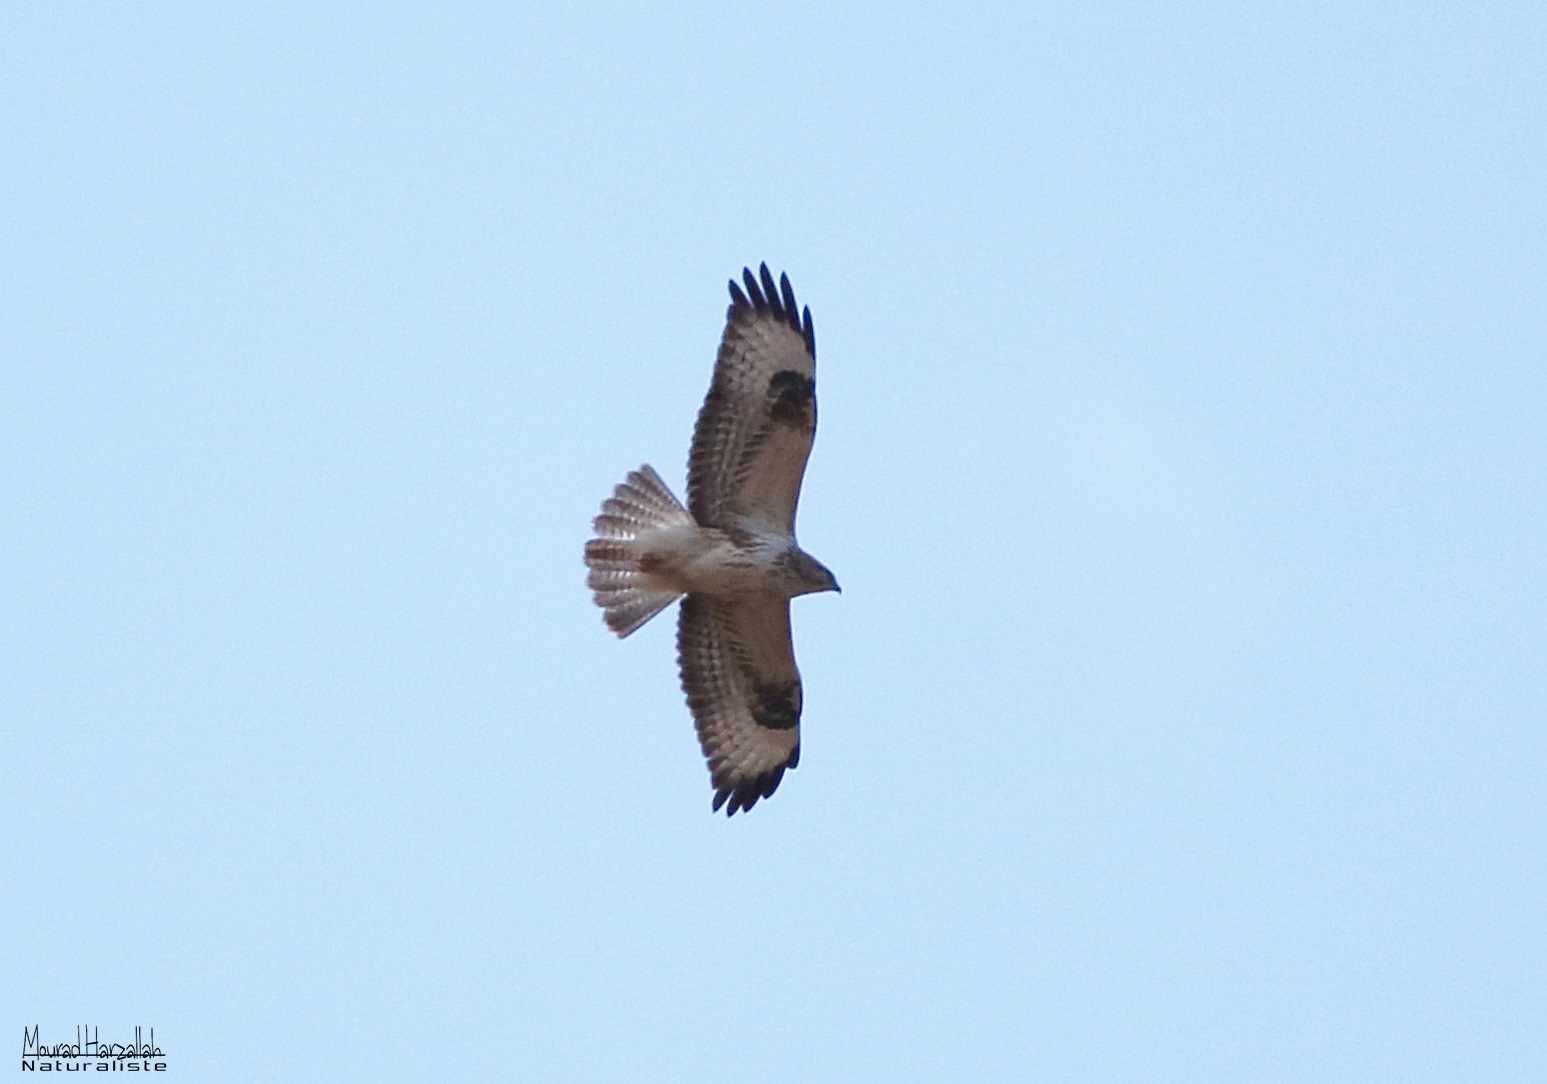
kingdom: Animalia
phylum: Chordata
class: Aves
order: Accipitriformes
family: Accipitridae
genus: Buteo
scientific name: Buteo rufinus
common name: Long-legged buzzard
